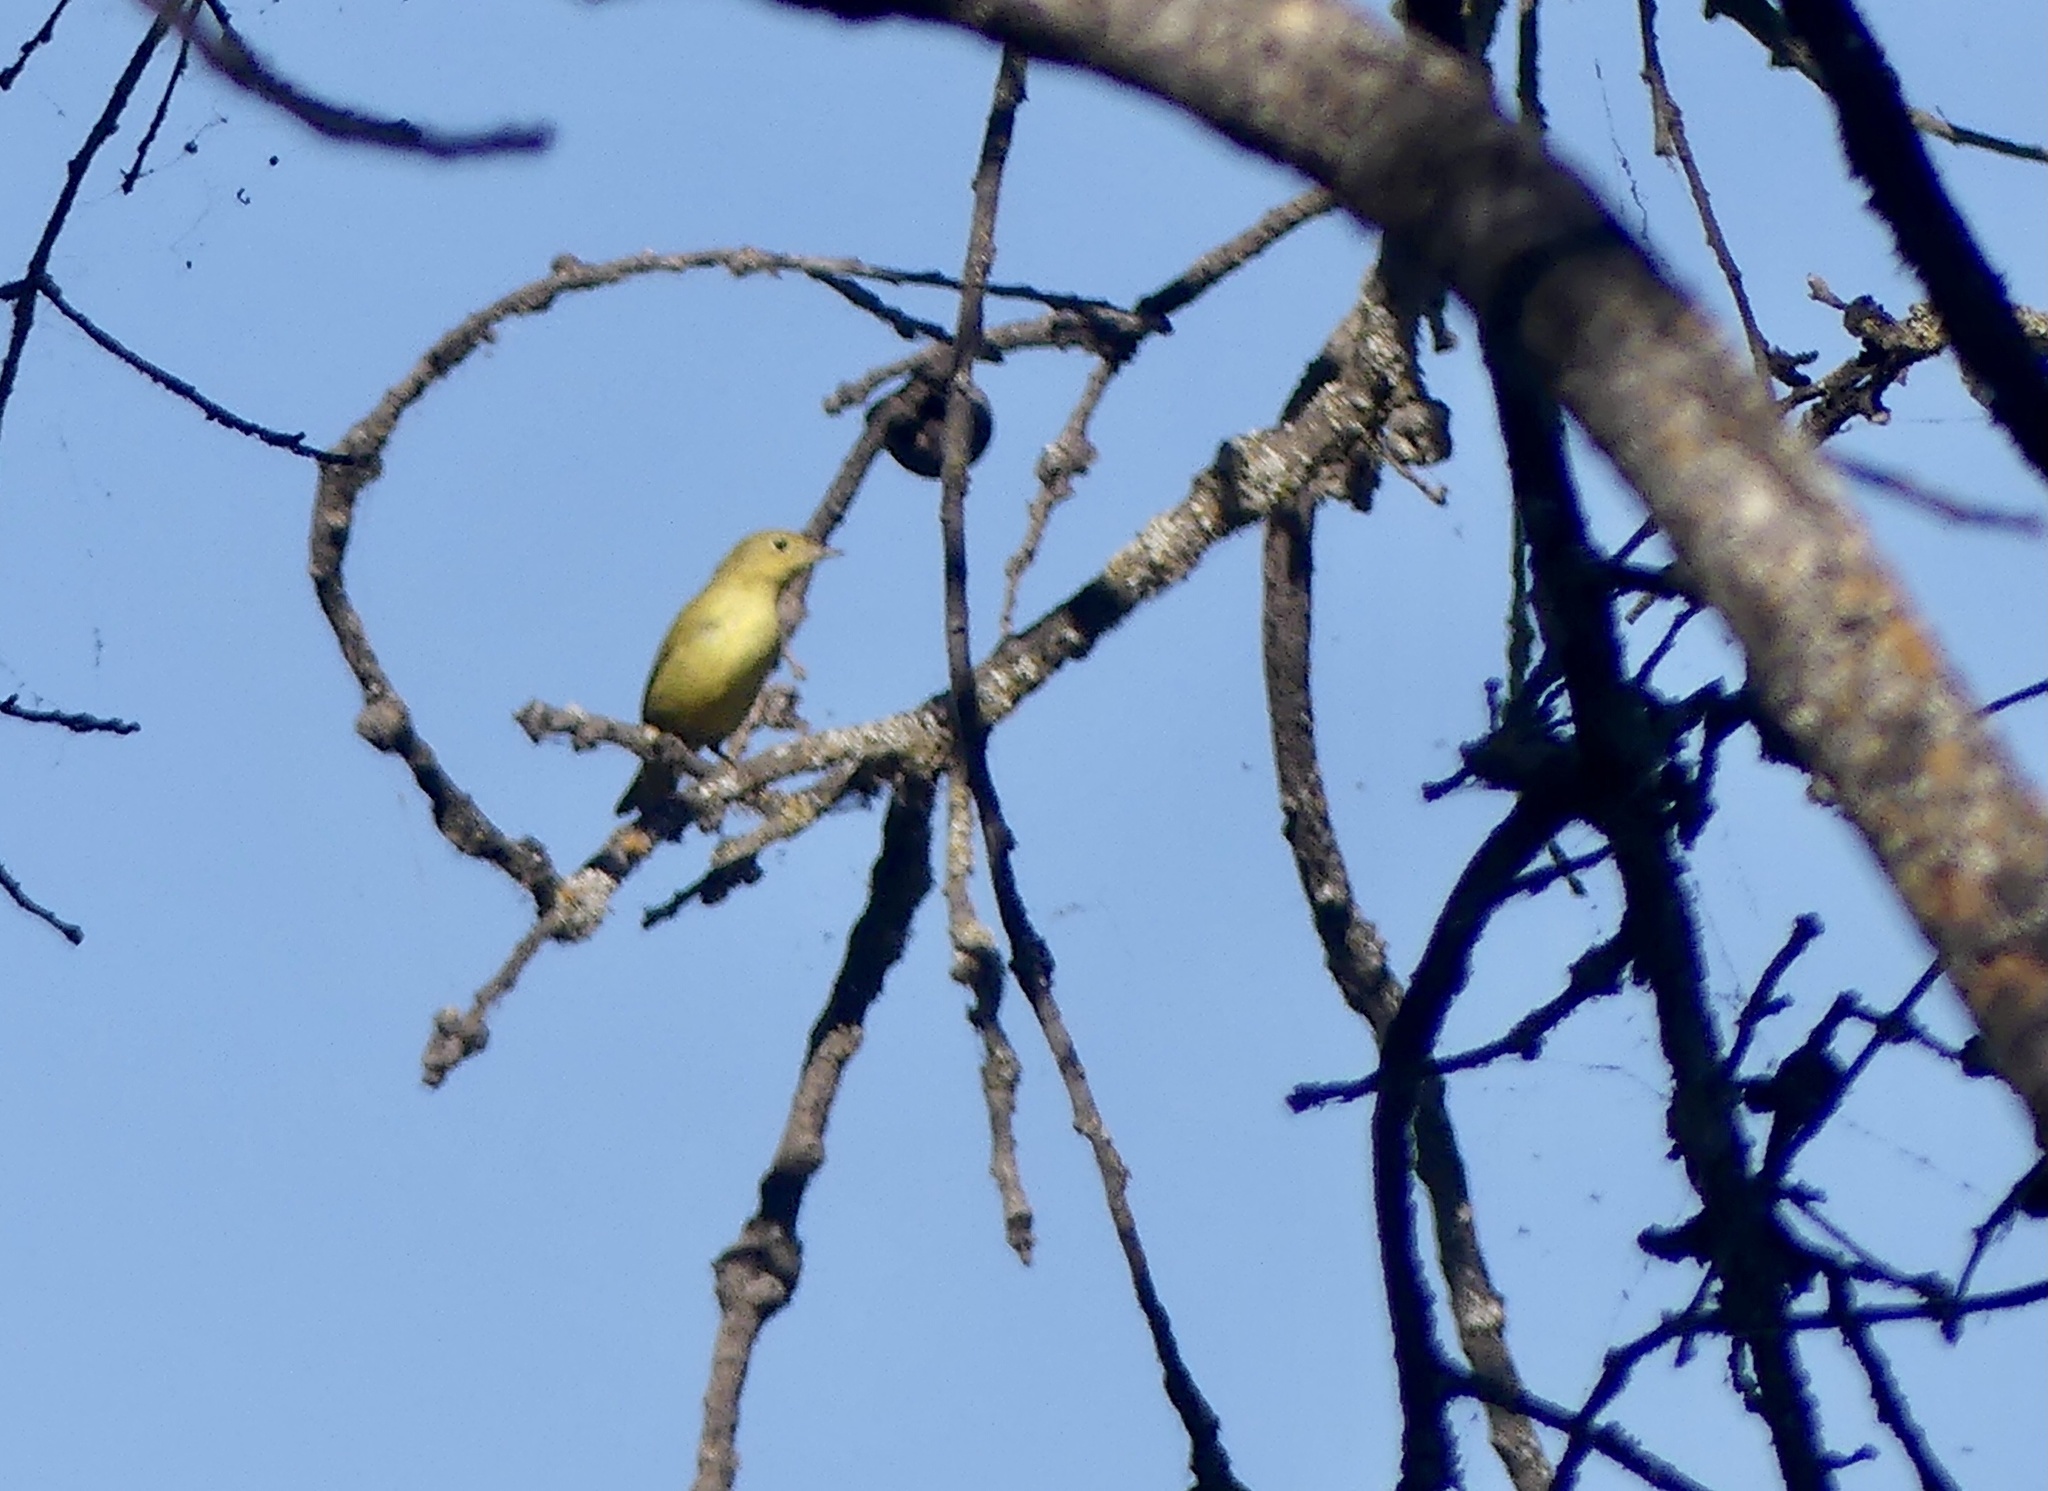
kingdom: Animalia
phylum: Chordata
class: Aves
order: Passeriformes
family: Parulidae
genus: Setophaga
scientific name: Setophaga petechia
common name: Yellow warbler
